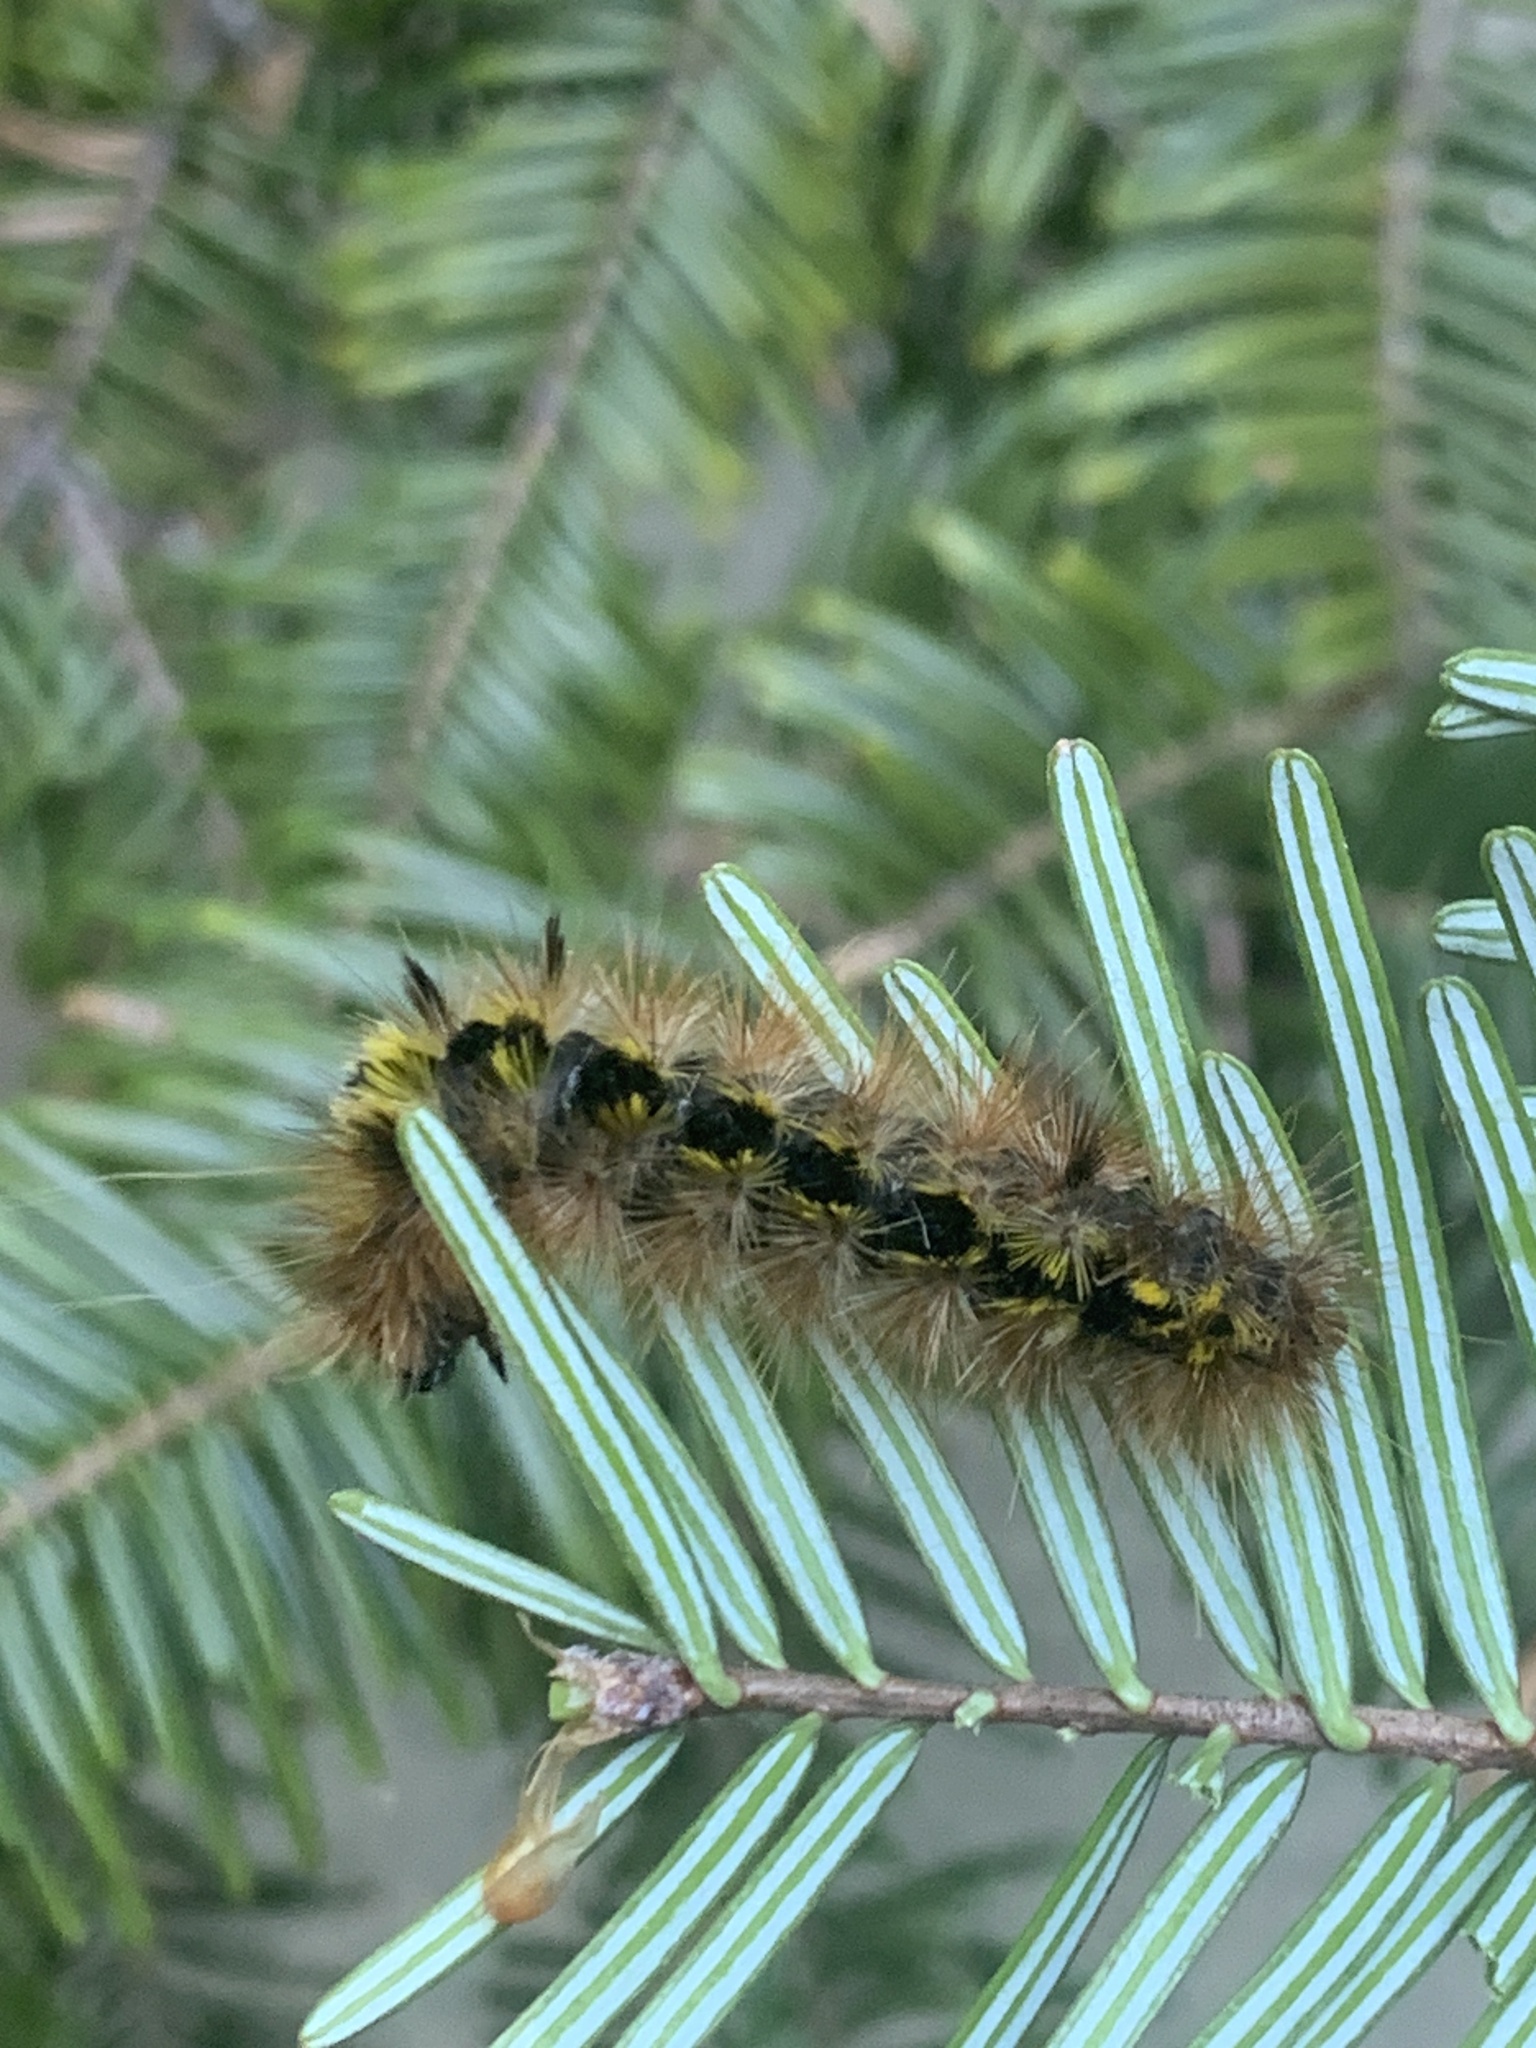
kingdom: Animalia
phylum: Arthropoda
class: Insecta
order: Lepidoptera
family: Erebidae
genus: Lophocampa
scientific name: Lophocampa argentata
